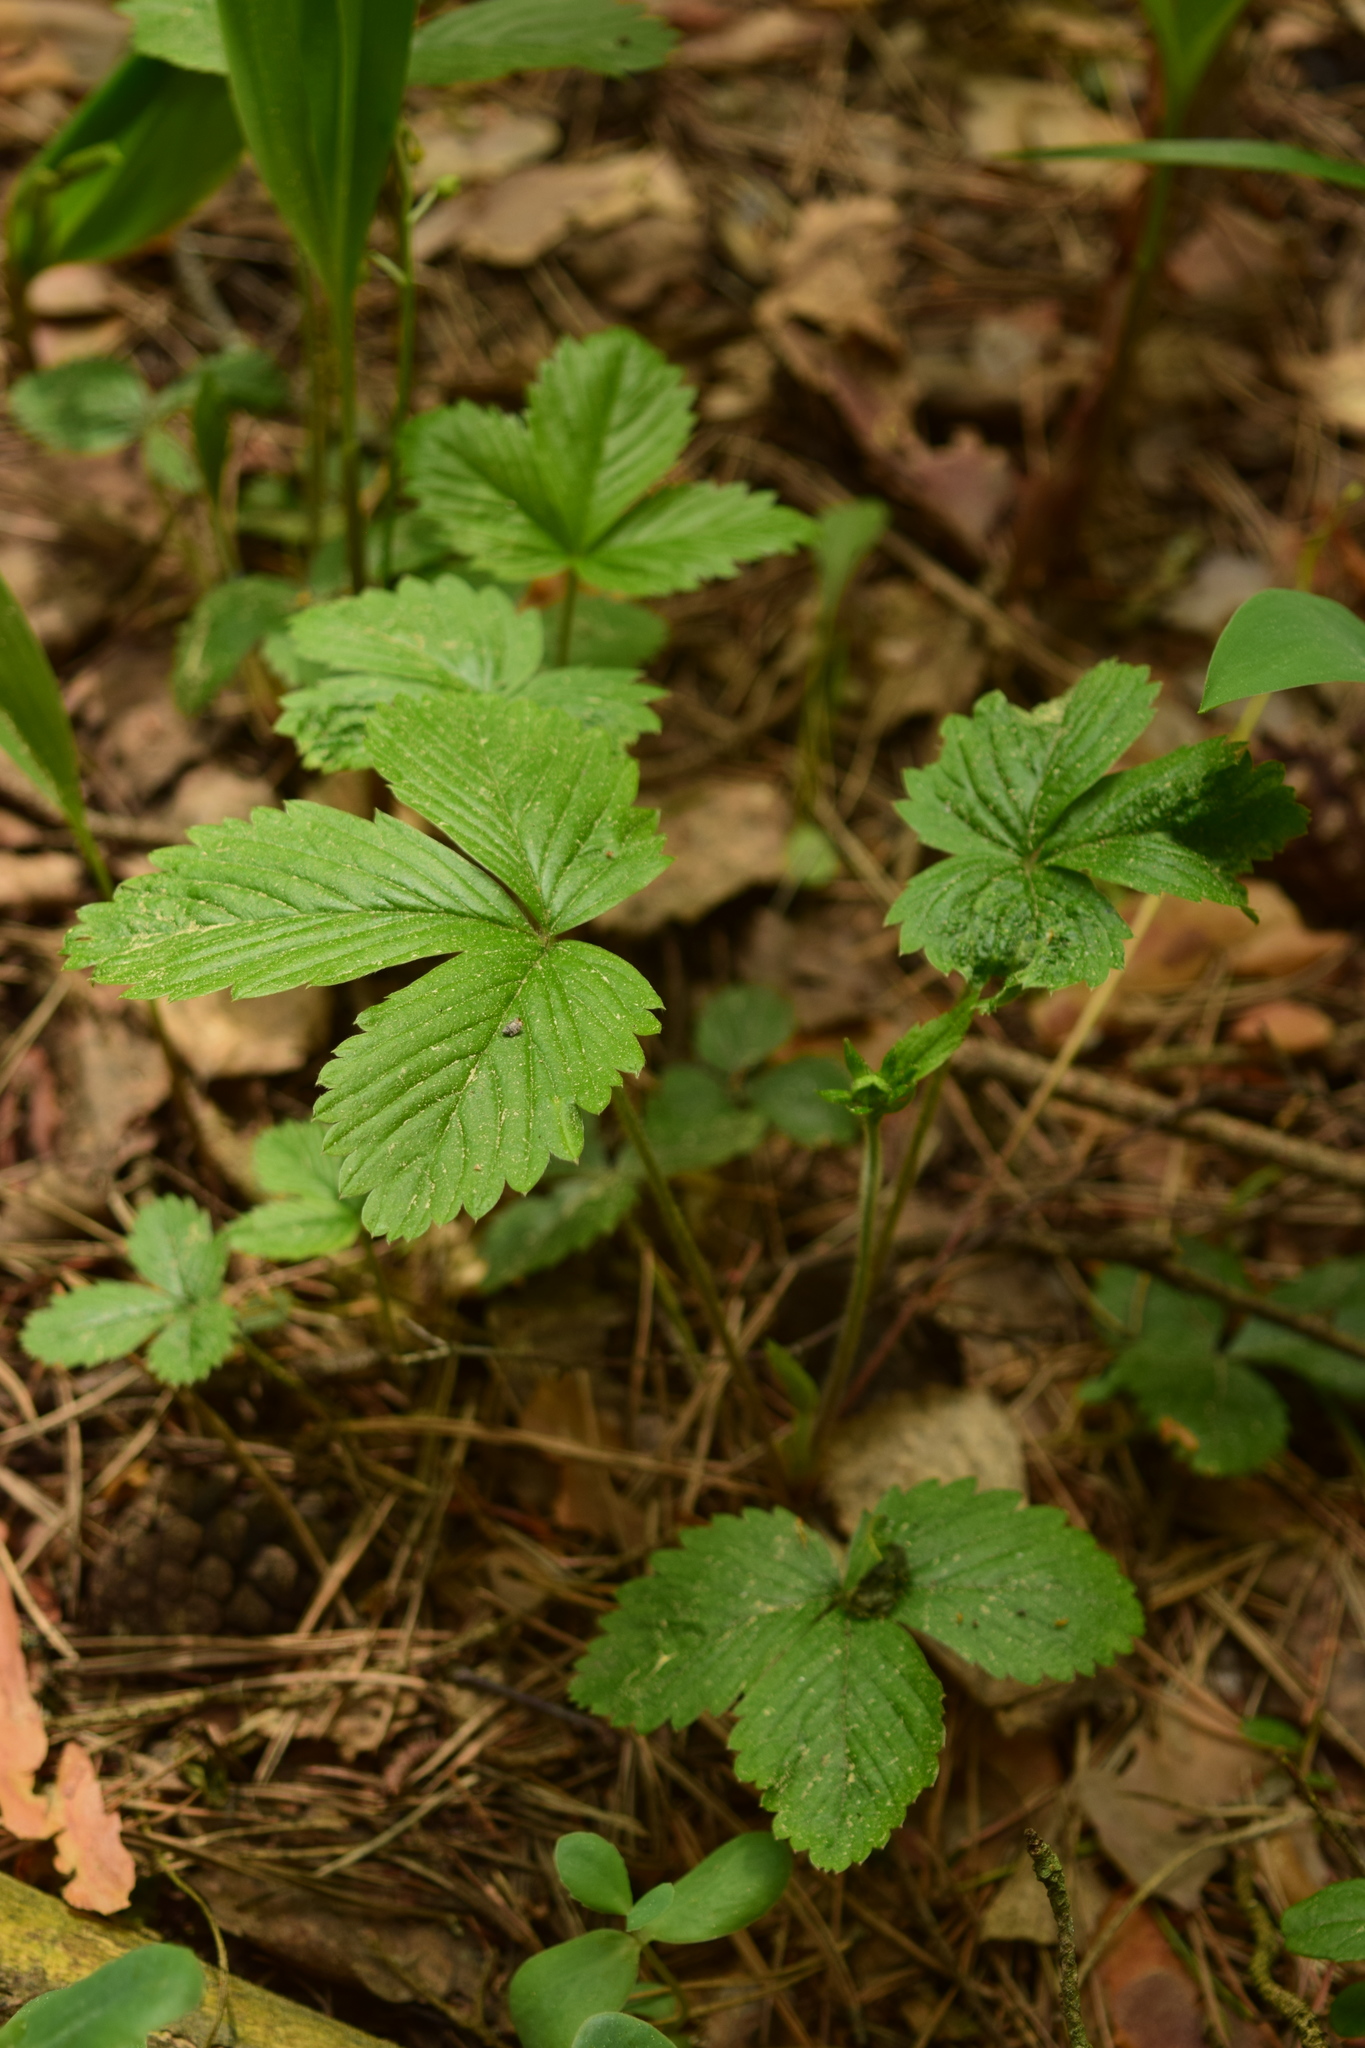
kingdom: Plantae
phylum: Tracheophyta
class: Magnoliopsida
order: Rosales
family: Rosaceae
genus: Fragaria
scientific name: Fragaria vesca
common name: Wild strawberry
